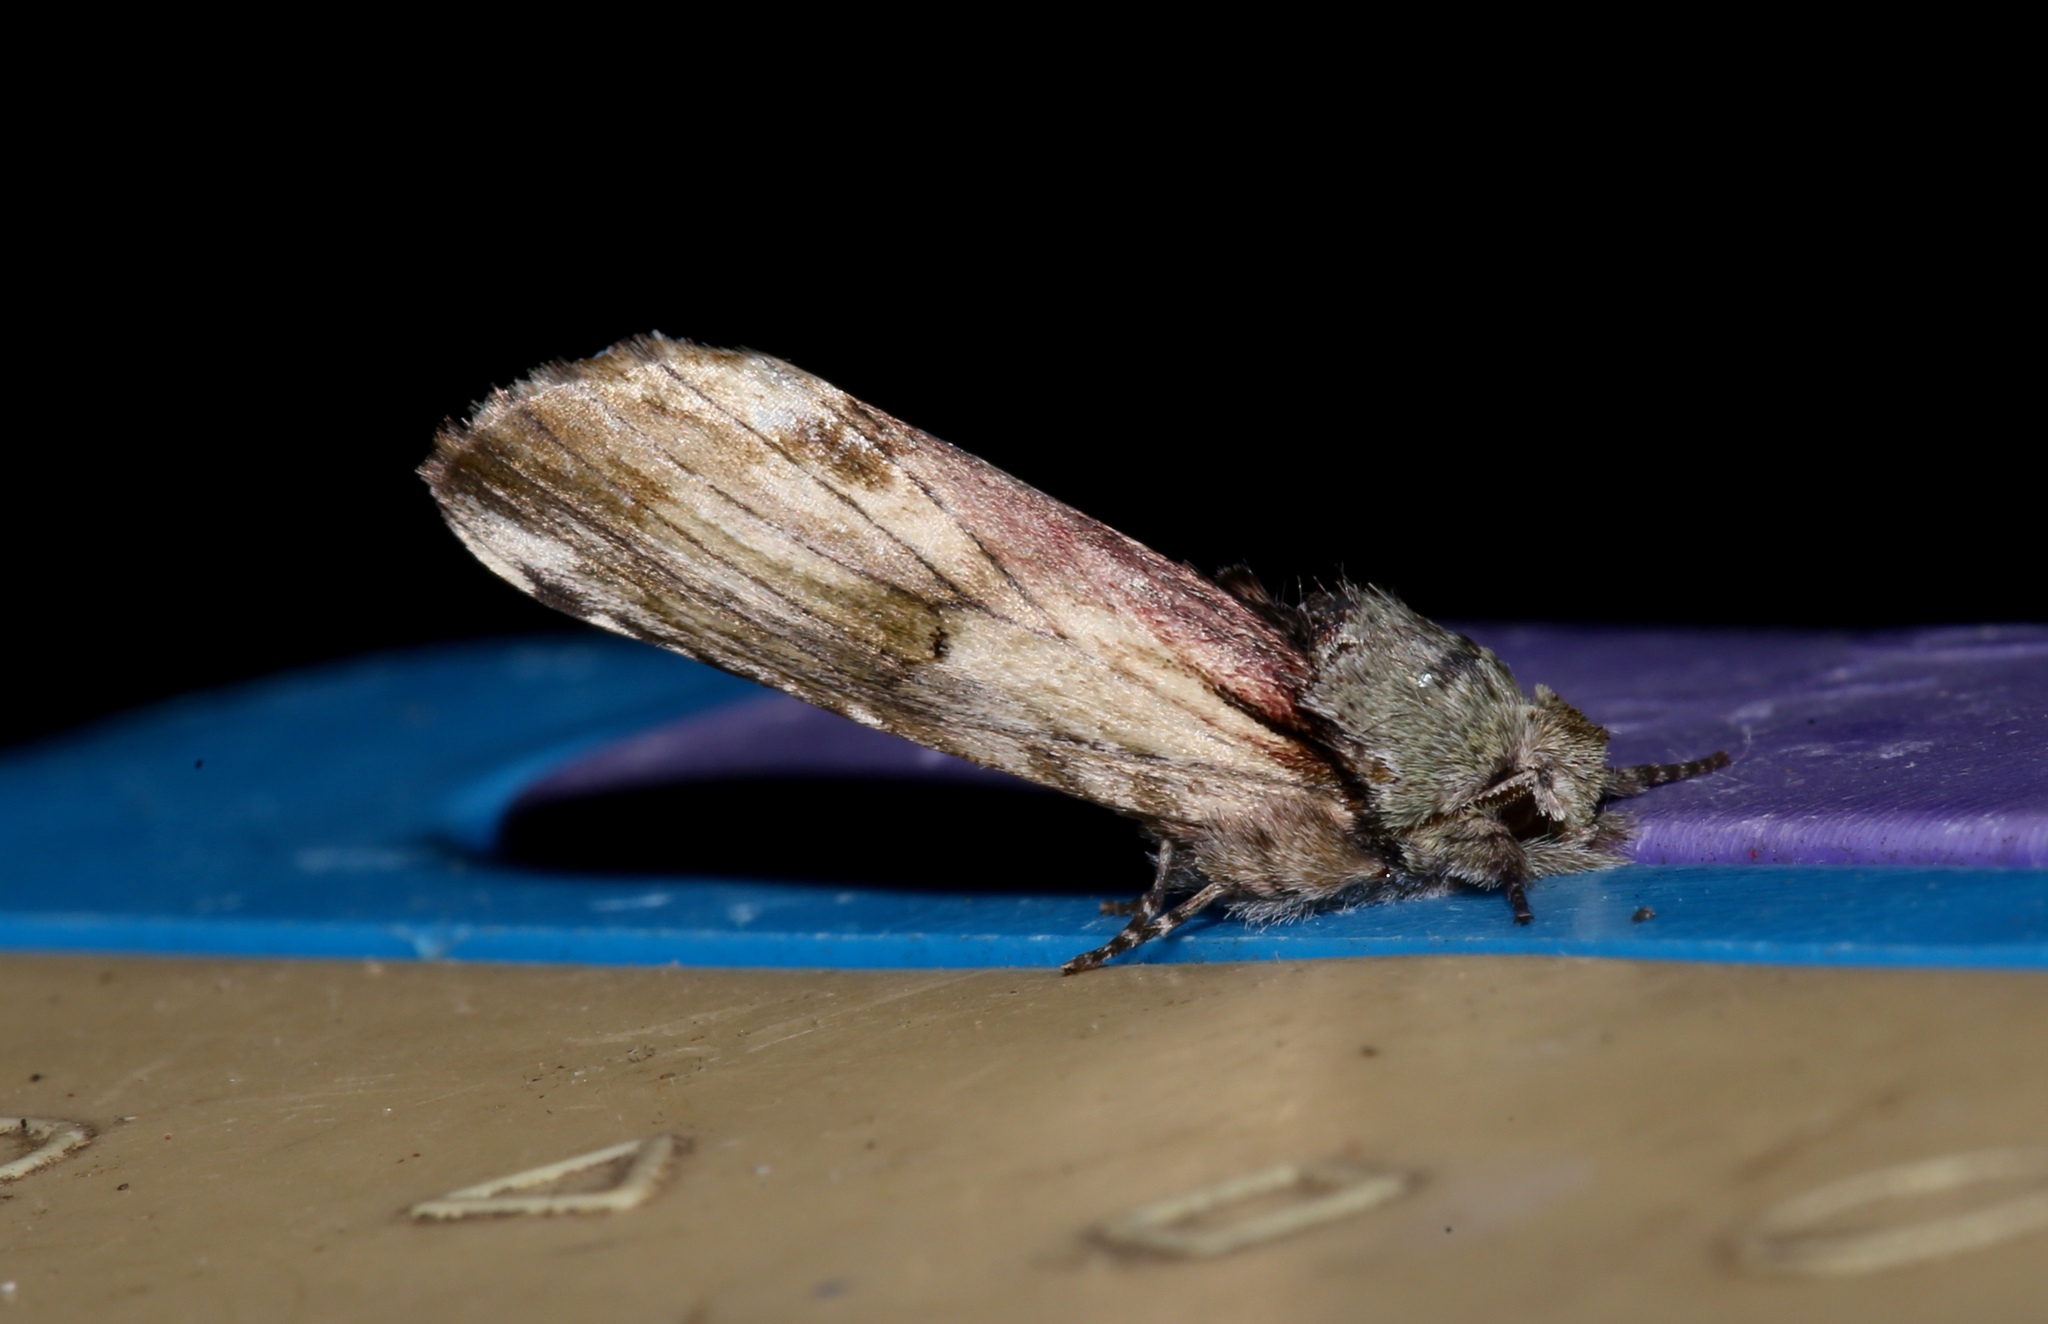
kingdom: Animalia
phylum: Arthropoda
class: Insecta
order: Lepidoptera
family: Notodontidae
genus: Schizura
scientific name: Schizura
